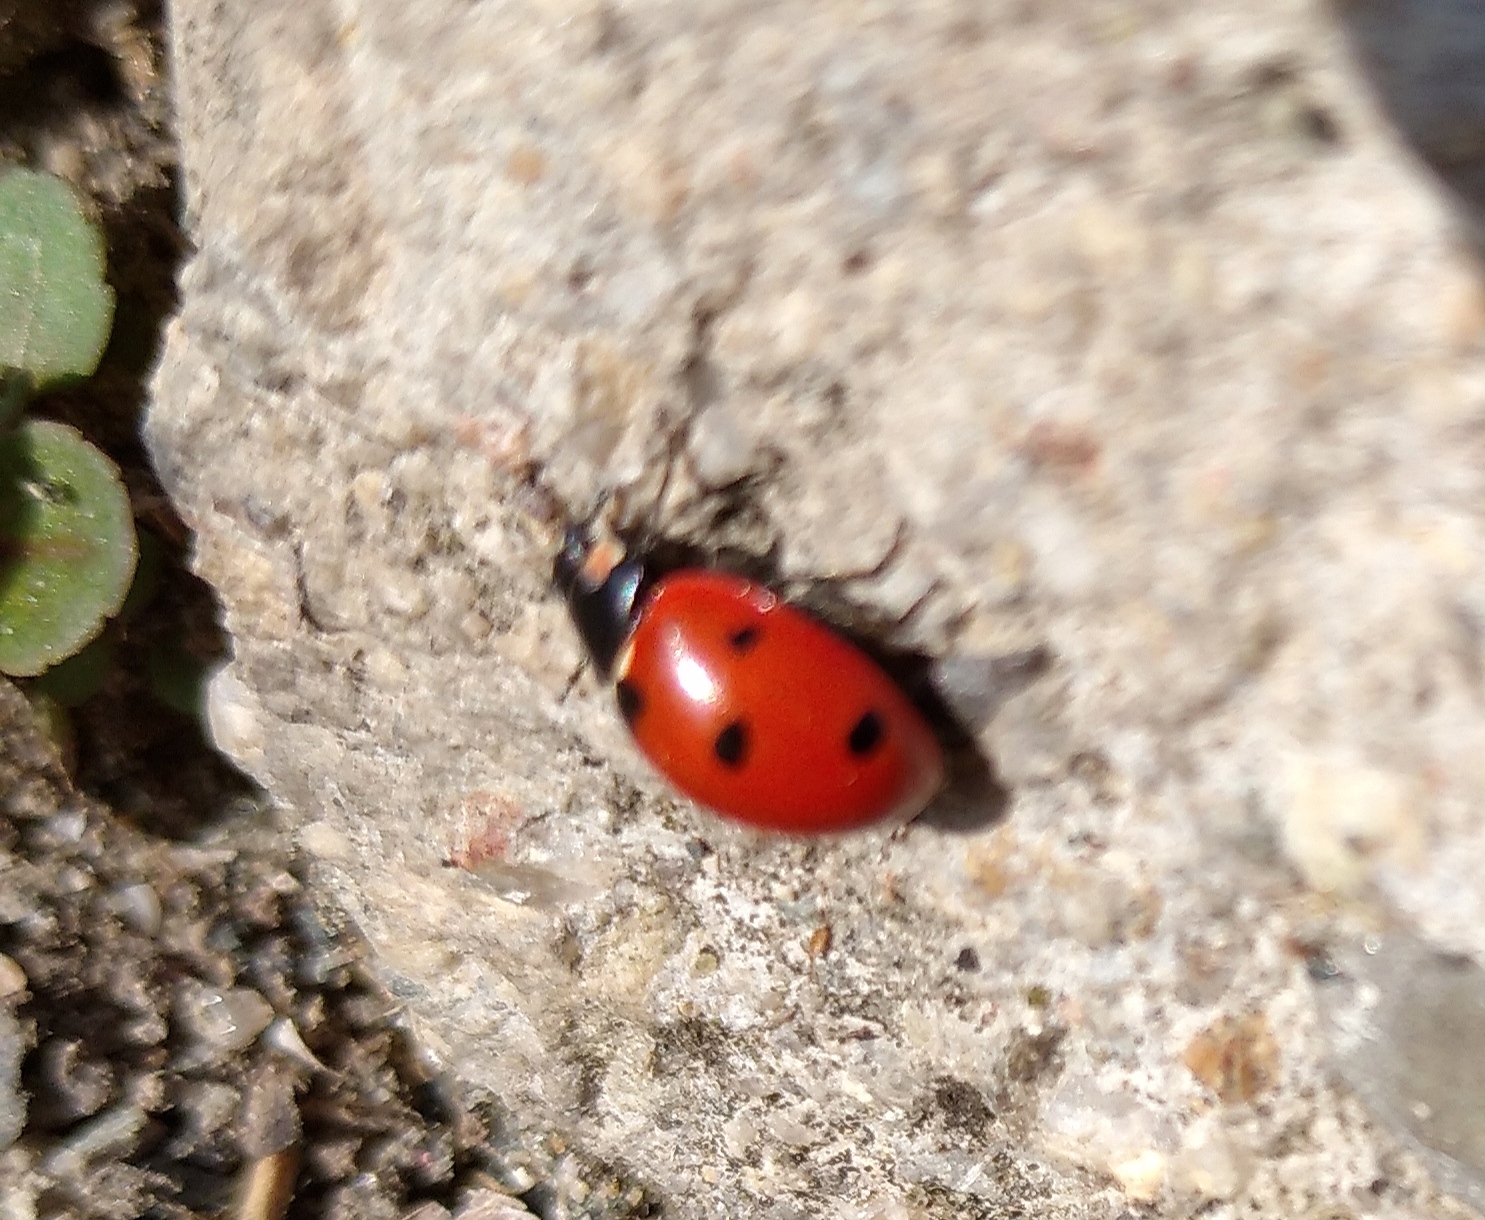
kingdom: Animalia
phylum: Arthropoda
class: Insecta
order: Coleoptera
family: Coccinellidae
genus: Coccinella
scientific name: Coccinella septempunctata
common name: Sevenspotted lady beetle
